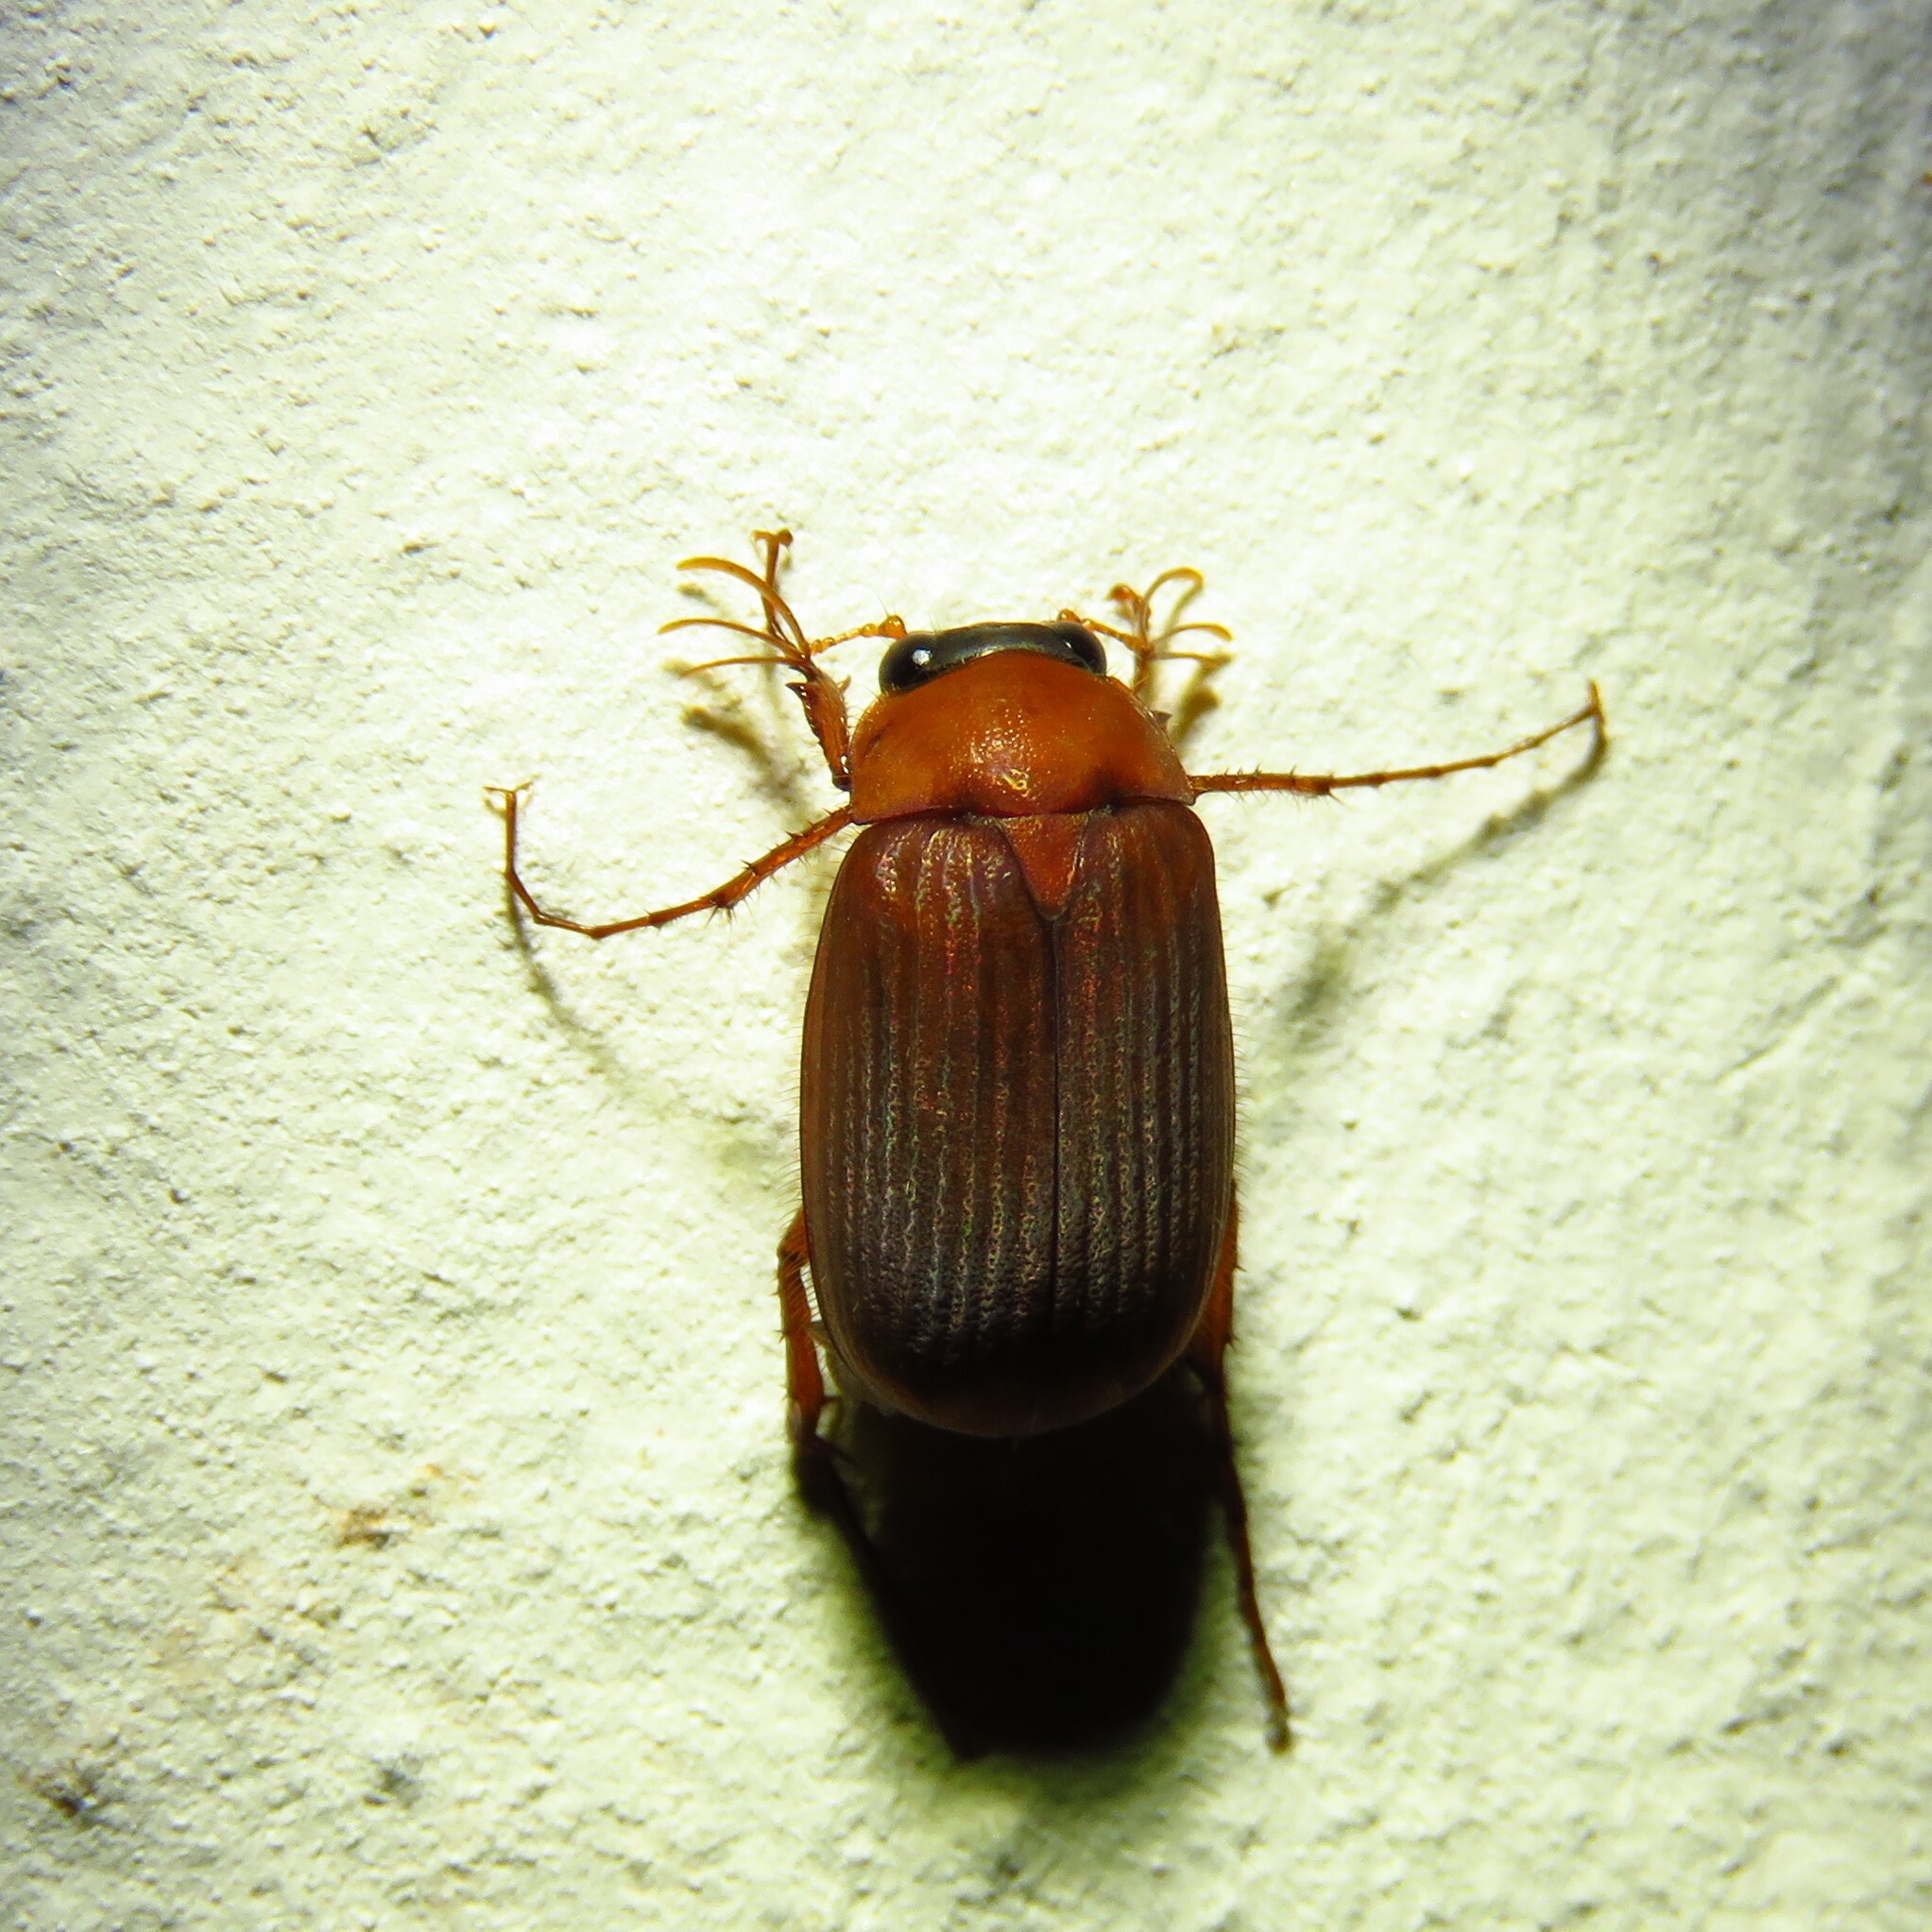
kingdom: Animalia
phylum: Arthropoda
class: Insecta
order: Coleoptera
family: Scarabaeidae
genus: Serica
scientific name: Serica brunnea
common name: Brown chafer
